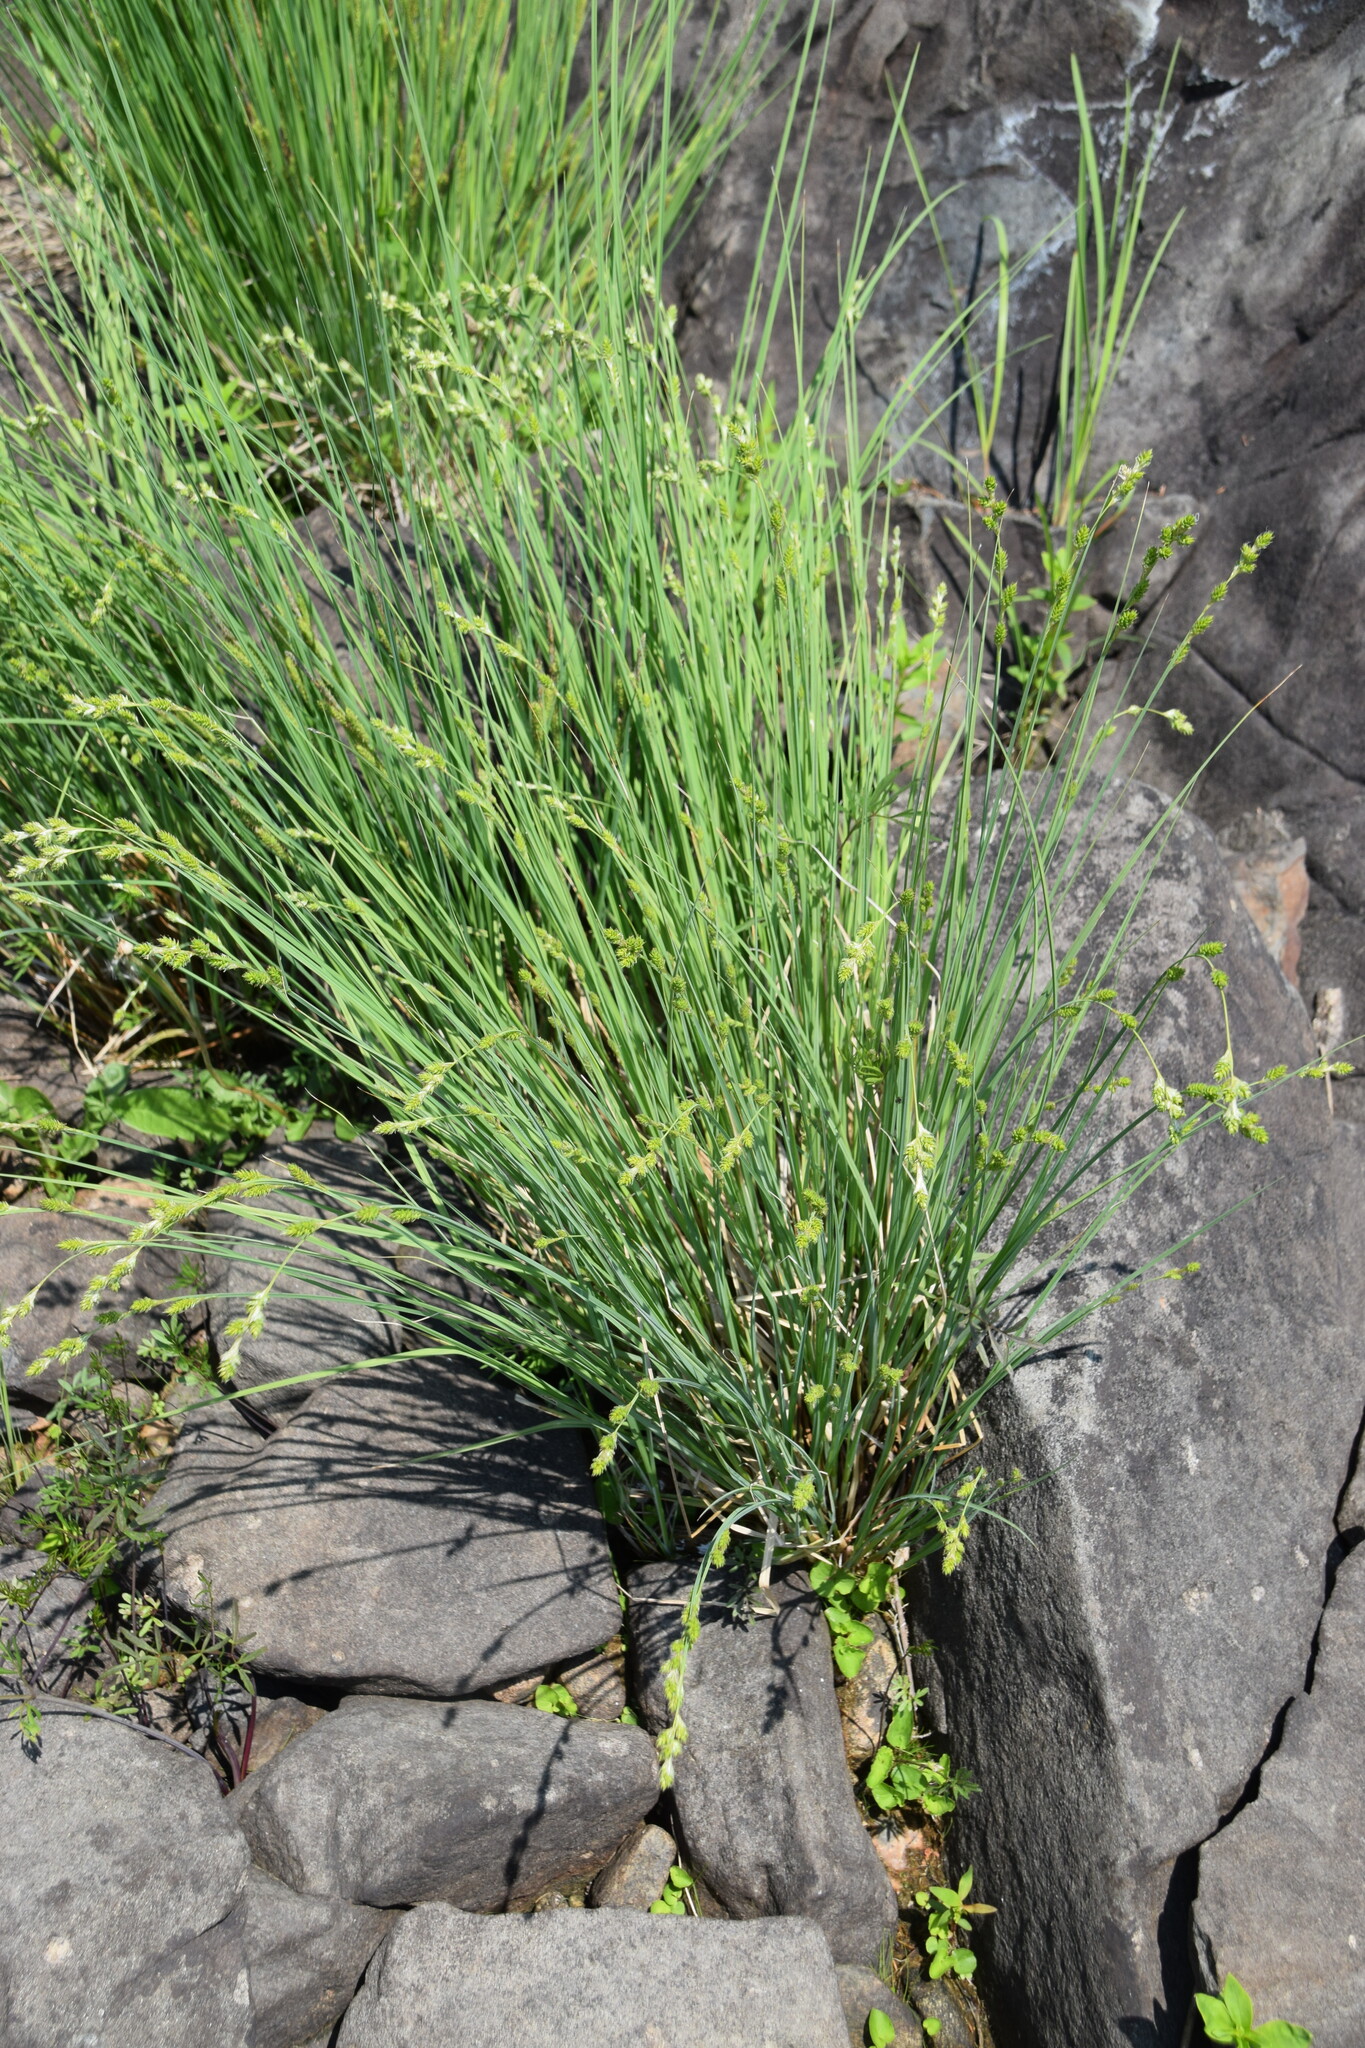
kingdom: Plantae
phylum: Tracheophyta
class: Liliopsida
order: Poales
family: Cyperaceae
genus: Carex
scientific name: Carex canescens
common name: White sedge
